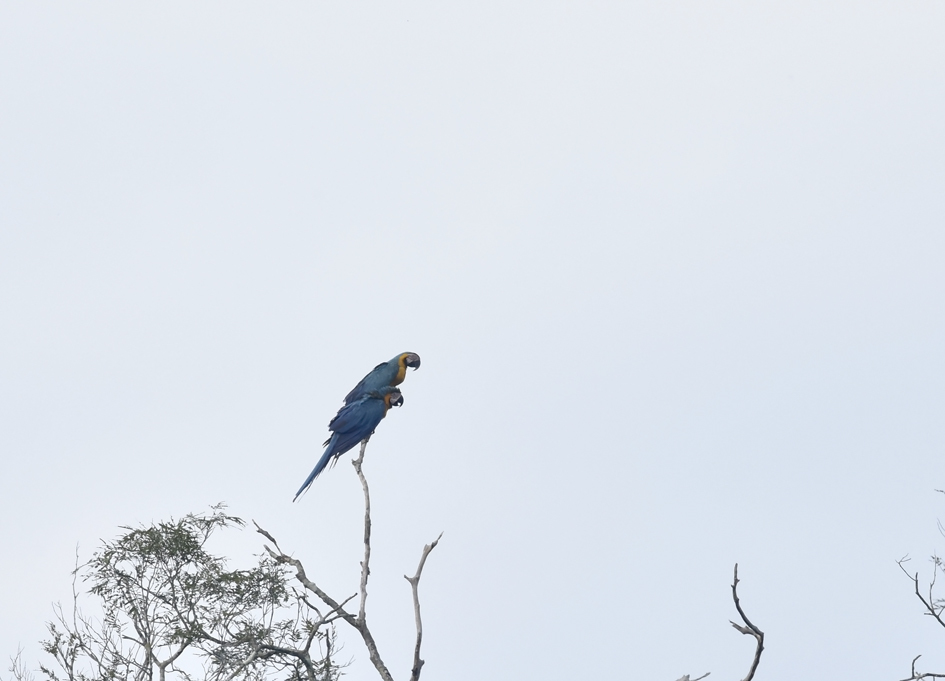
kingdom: Animalia
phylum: Chordata
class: Aves
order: Psittaciformes
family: Psittacidae
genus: Ara
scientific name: Ara ararauna
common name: Blue-and-yellow macaw
